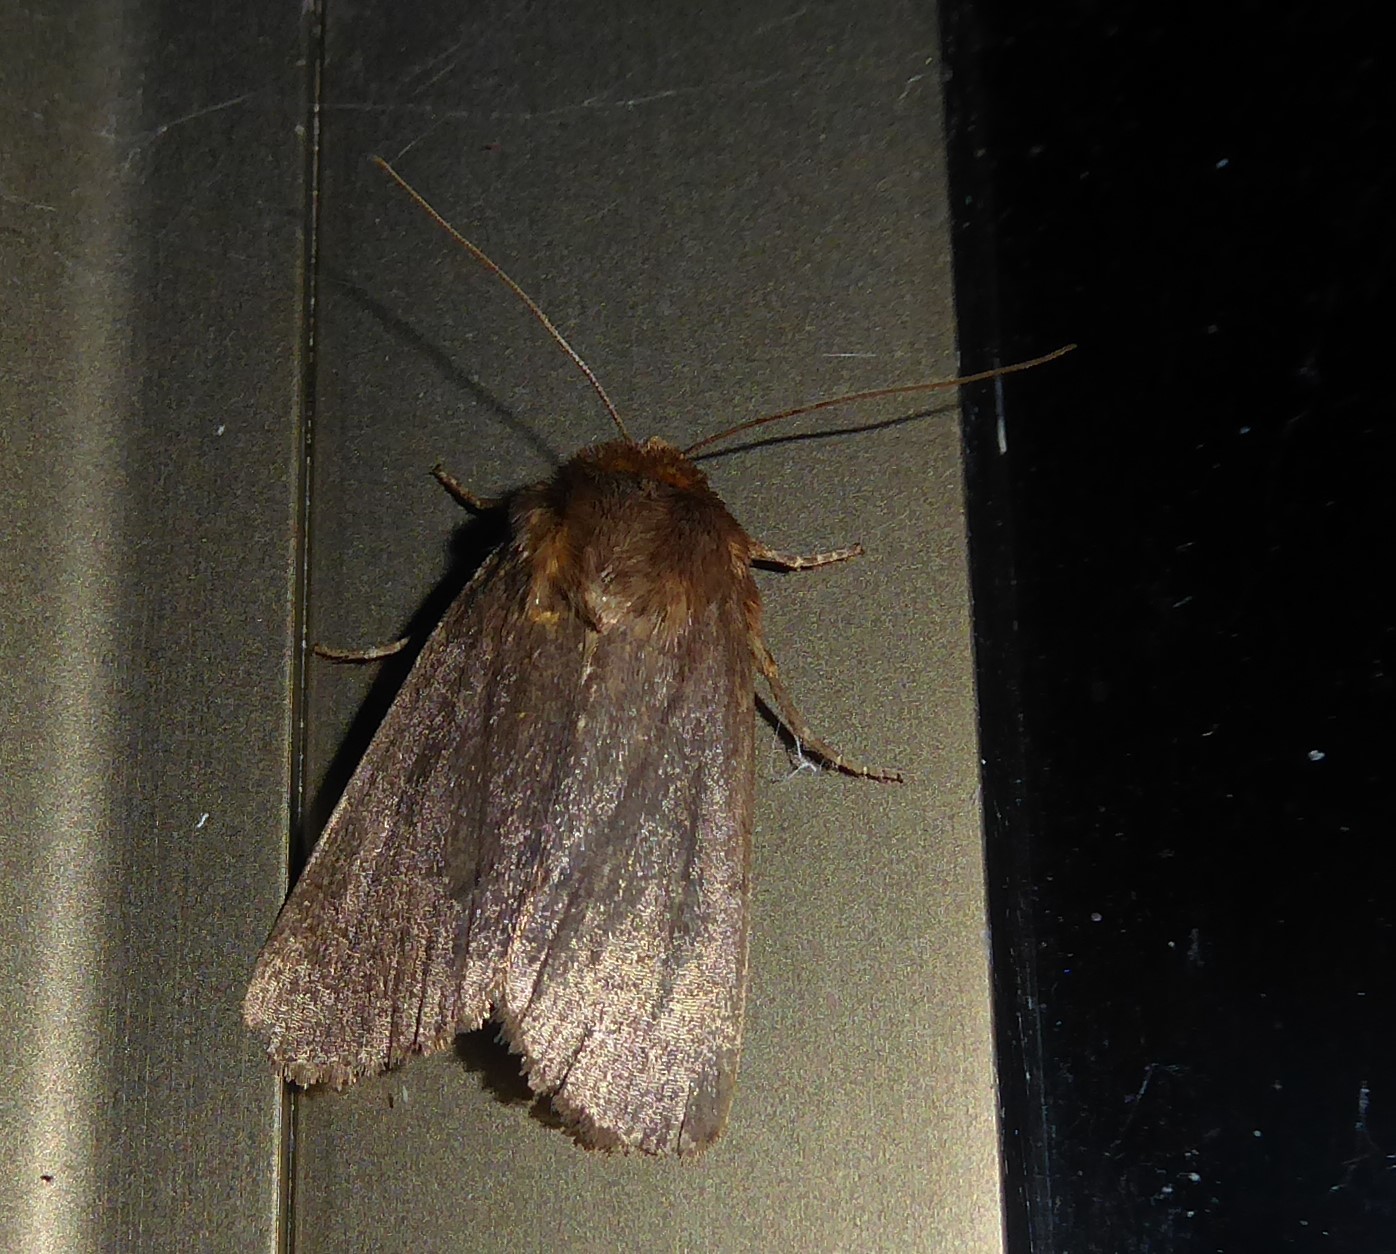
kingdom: Animalia
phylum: Arthropoda
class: Insecta
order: Lepidoptera
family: Noctuidae
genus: Bityla
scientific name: Bityla defigurata
